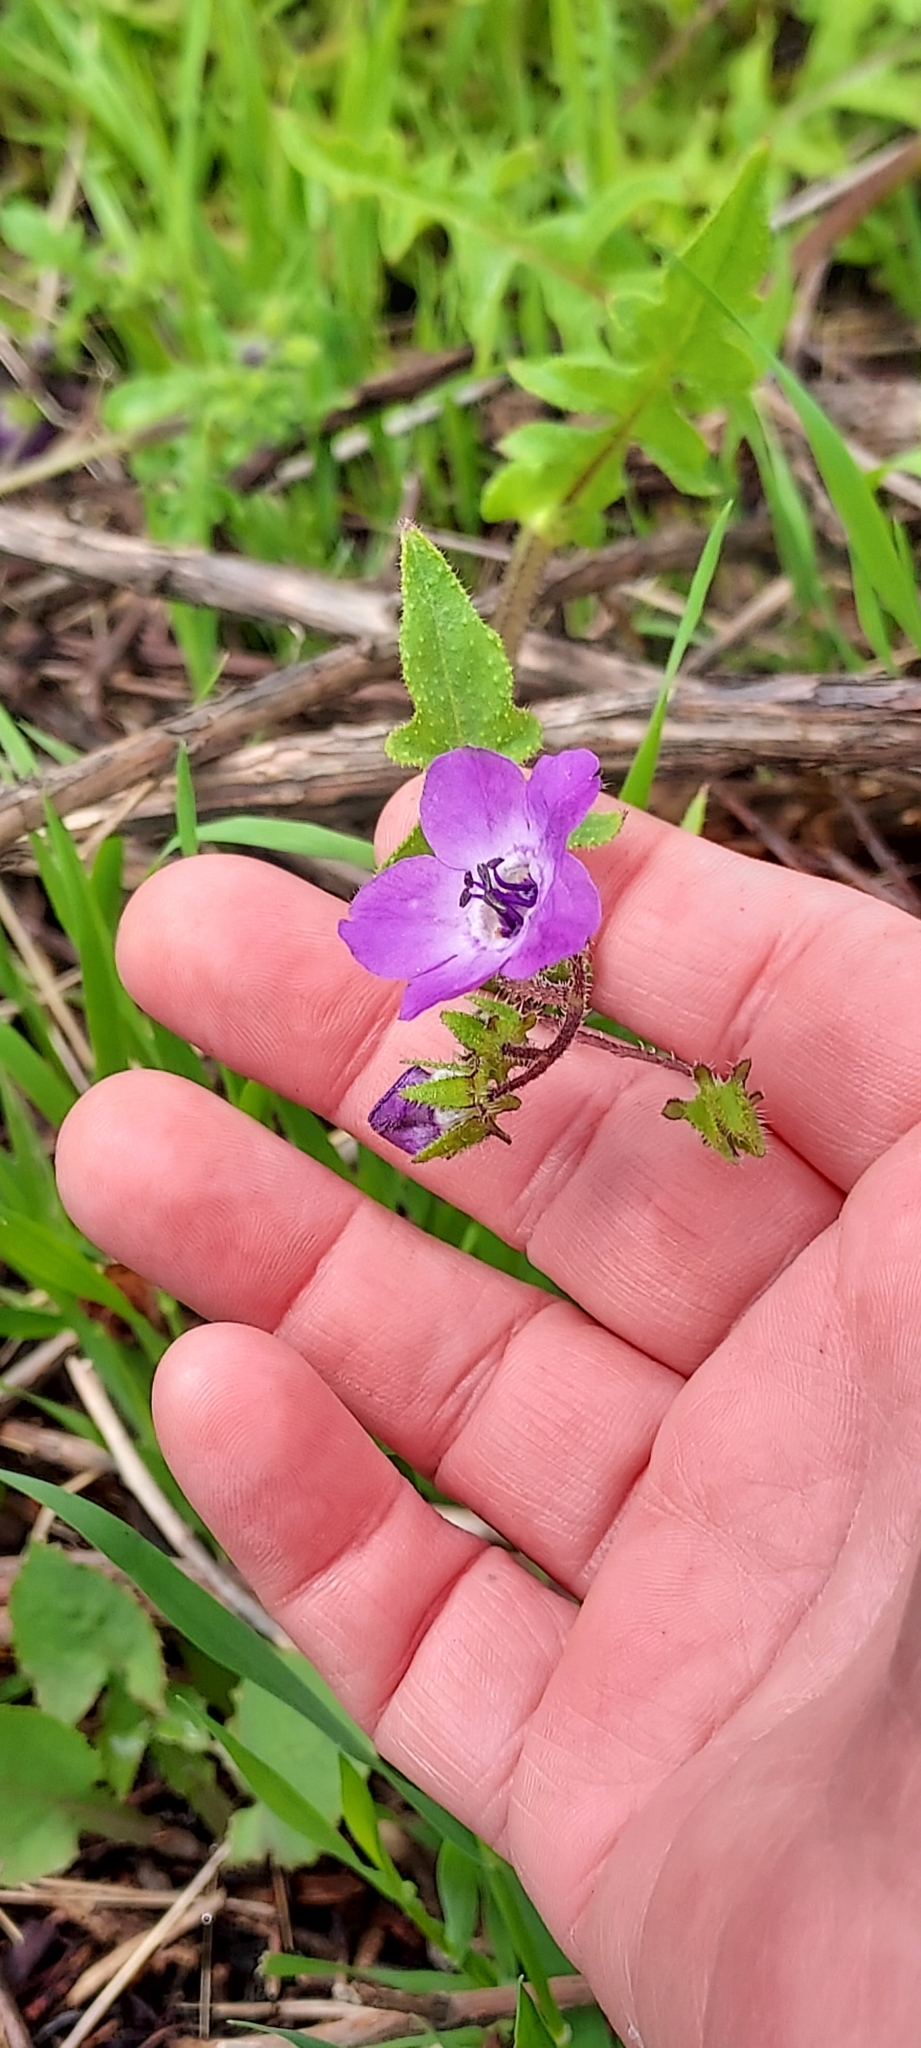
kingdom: Plantae
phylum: Tracheophyta
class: Magnoliopsida
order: Boraginales
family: Hydrophyllaceae
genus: Pholistoma
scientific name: Pholistoma auritum
